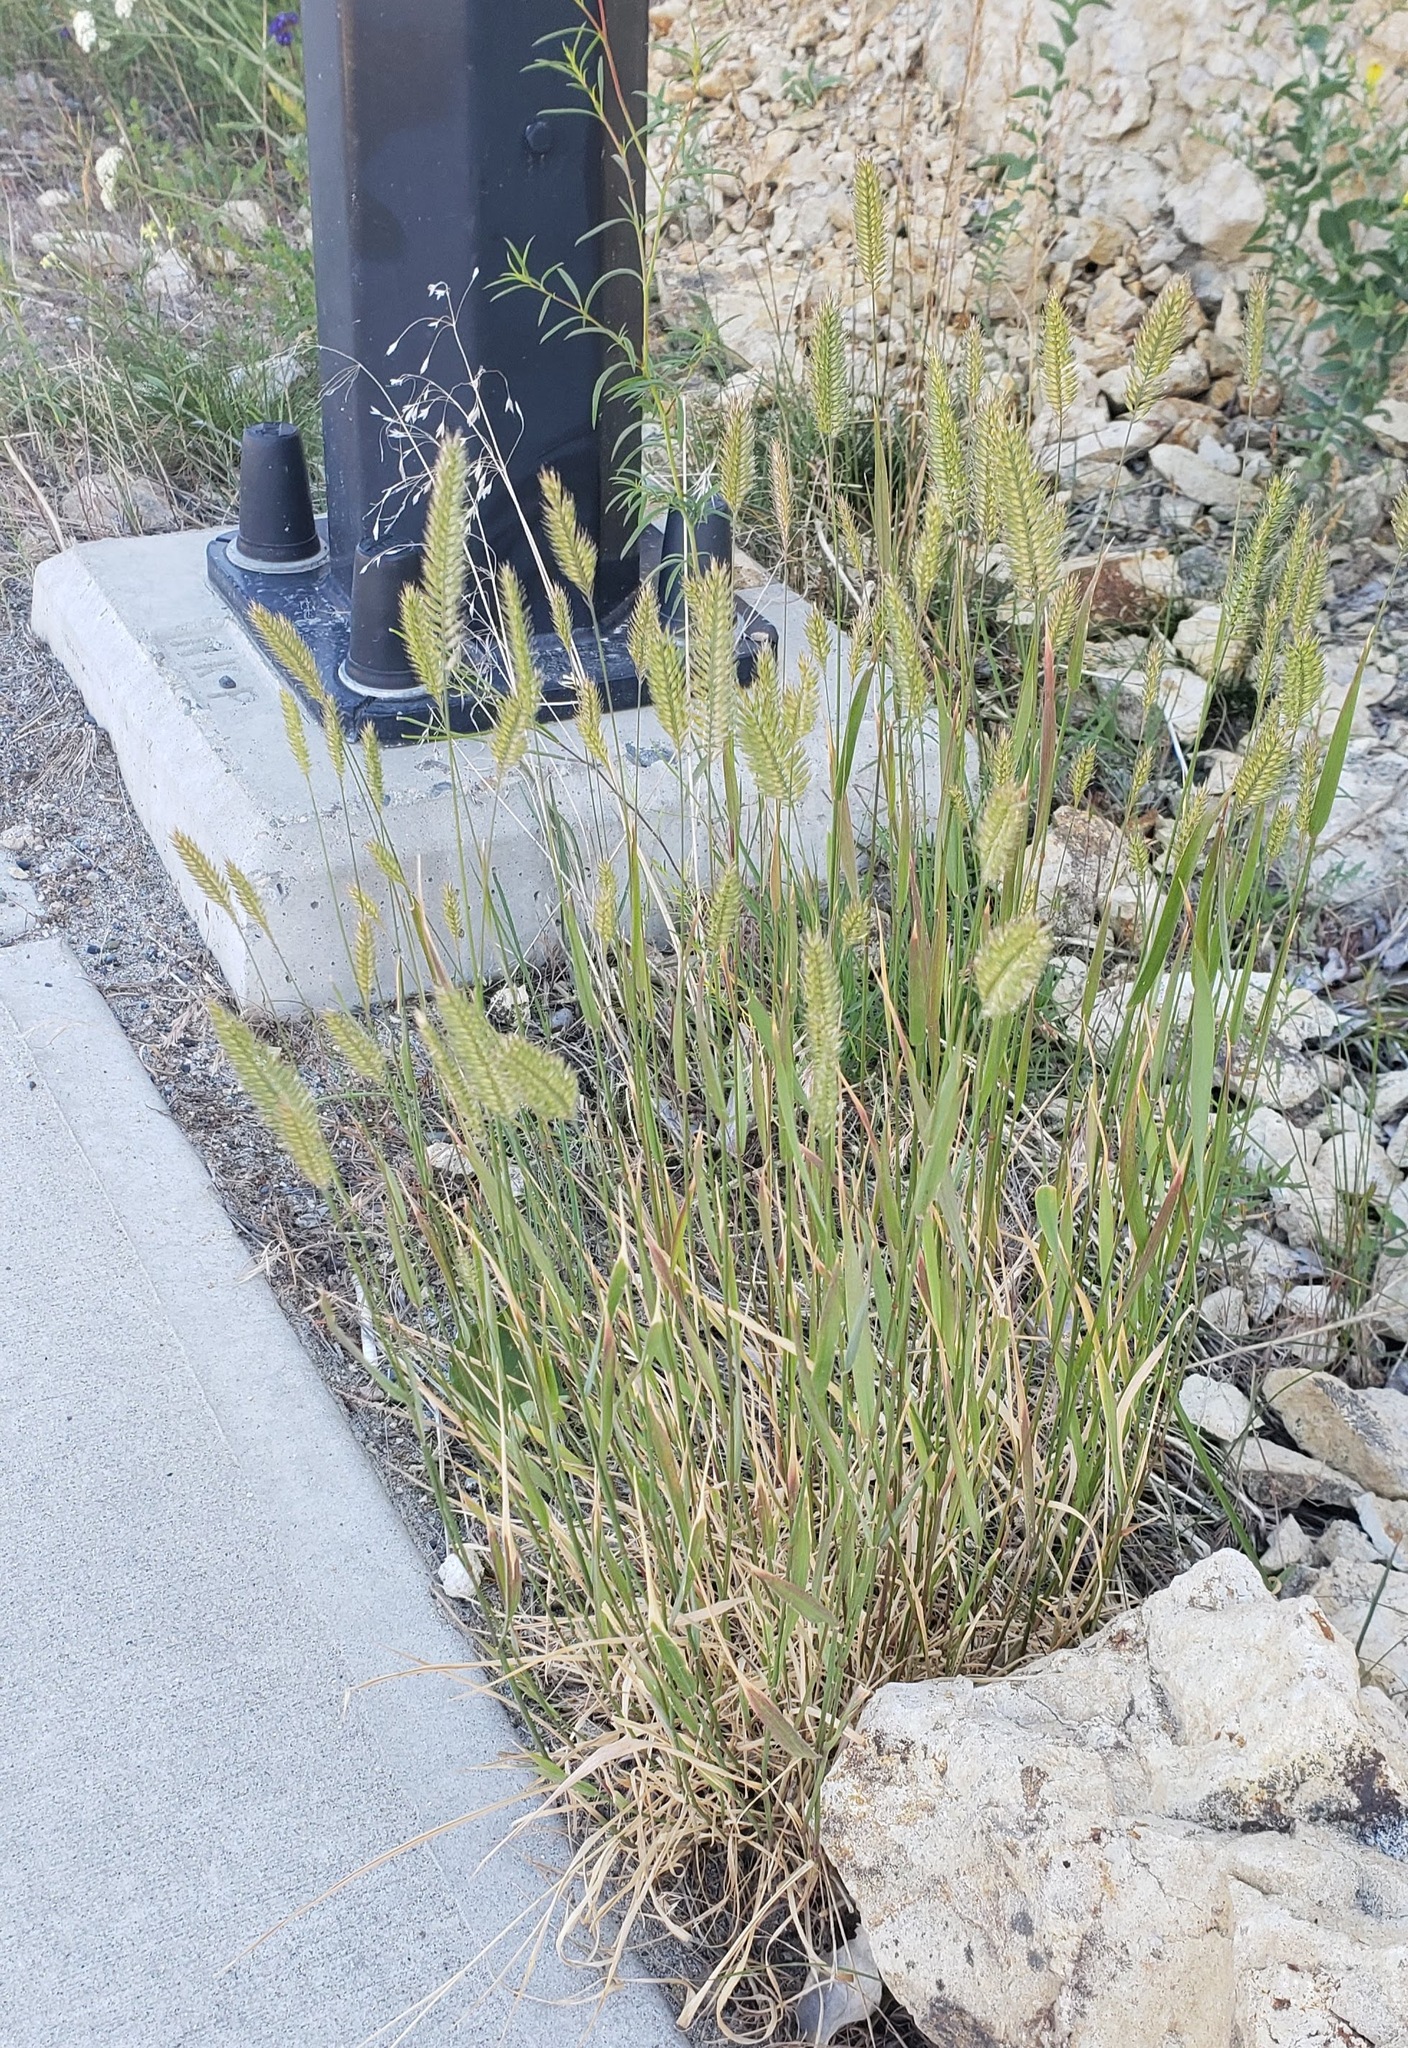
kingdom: Plantae
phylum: Tracheophyta
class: Liliopsida
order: Poales
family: Poaceae
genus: Agropyron
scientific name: Agropyron cristatum
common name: Crested wheatgrass
